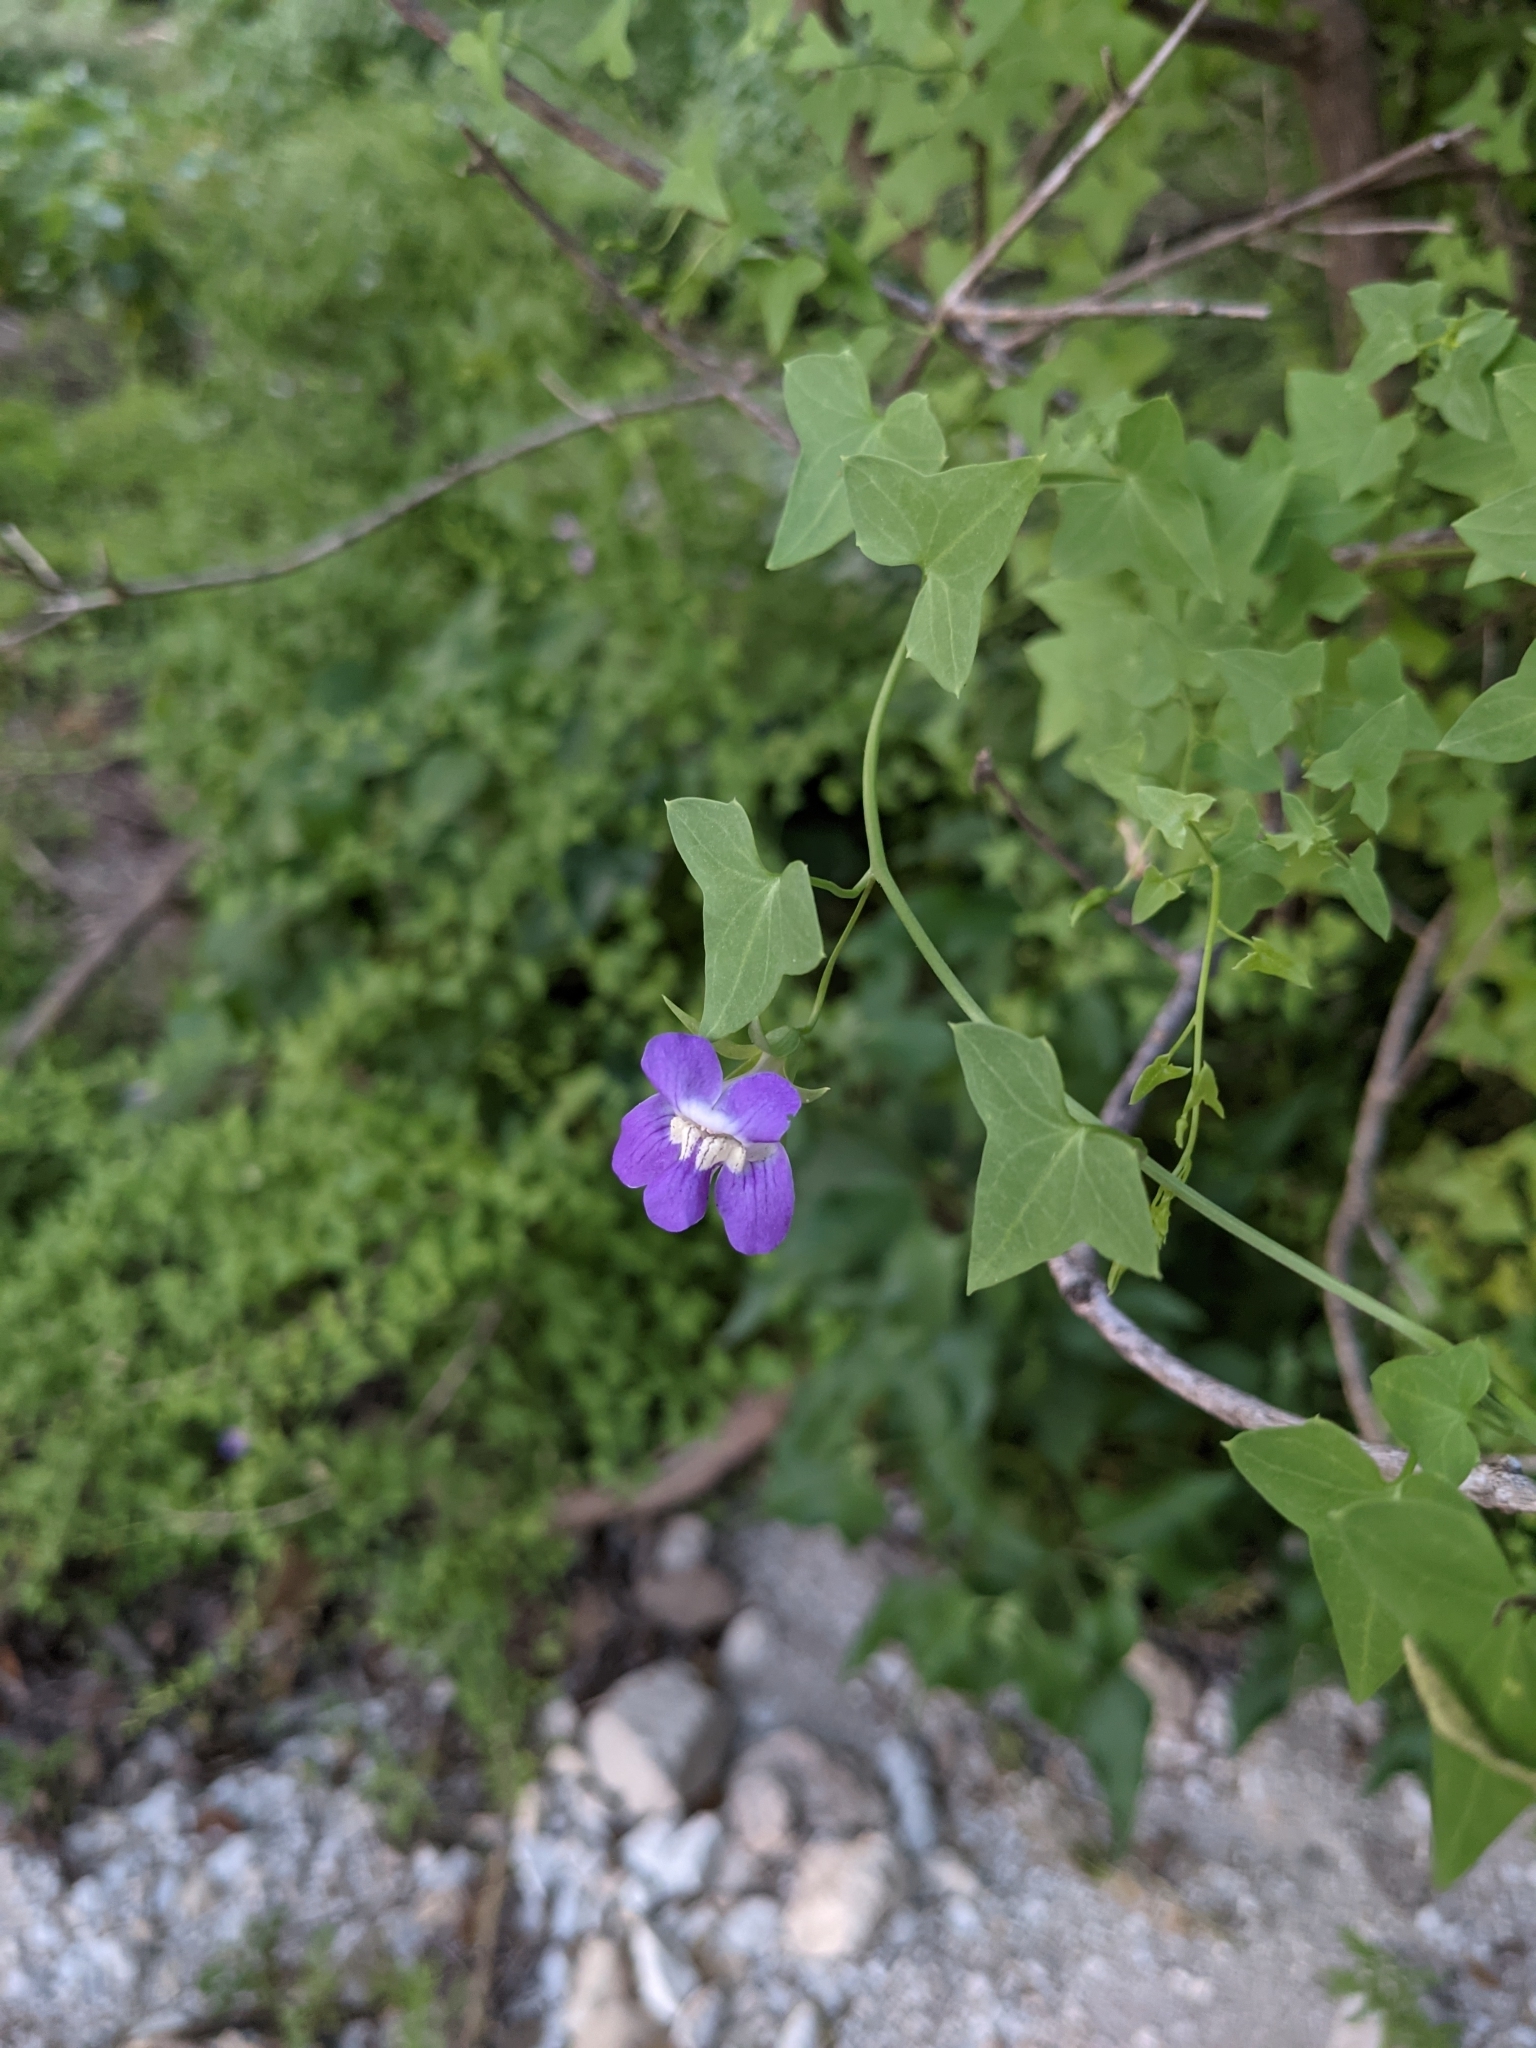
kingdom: Plantae
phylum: Tracheophyta
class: Magnoliopsida
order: Lamiales
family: Plantaginaceae
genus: Maurandella
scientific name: Maurandella antirrhiniflora
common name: Violet twining-snapdragon
